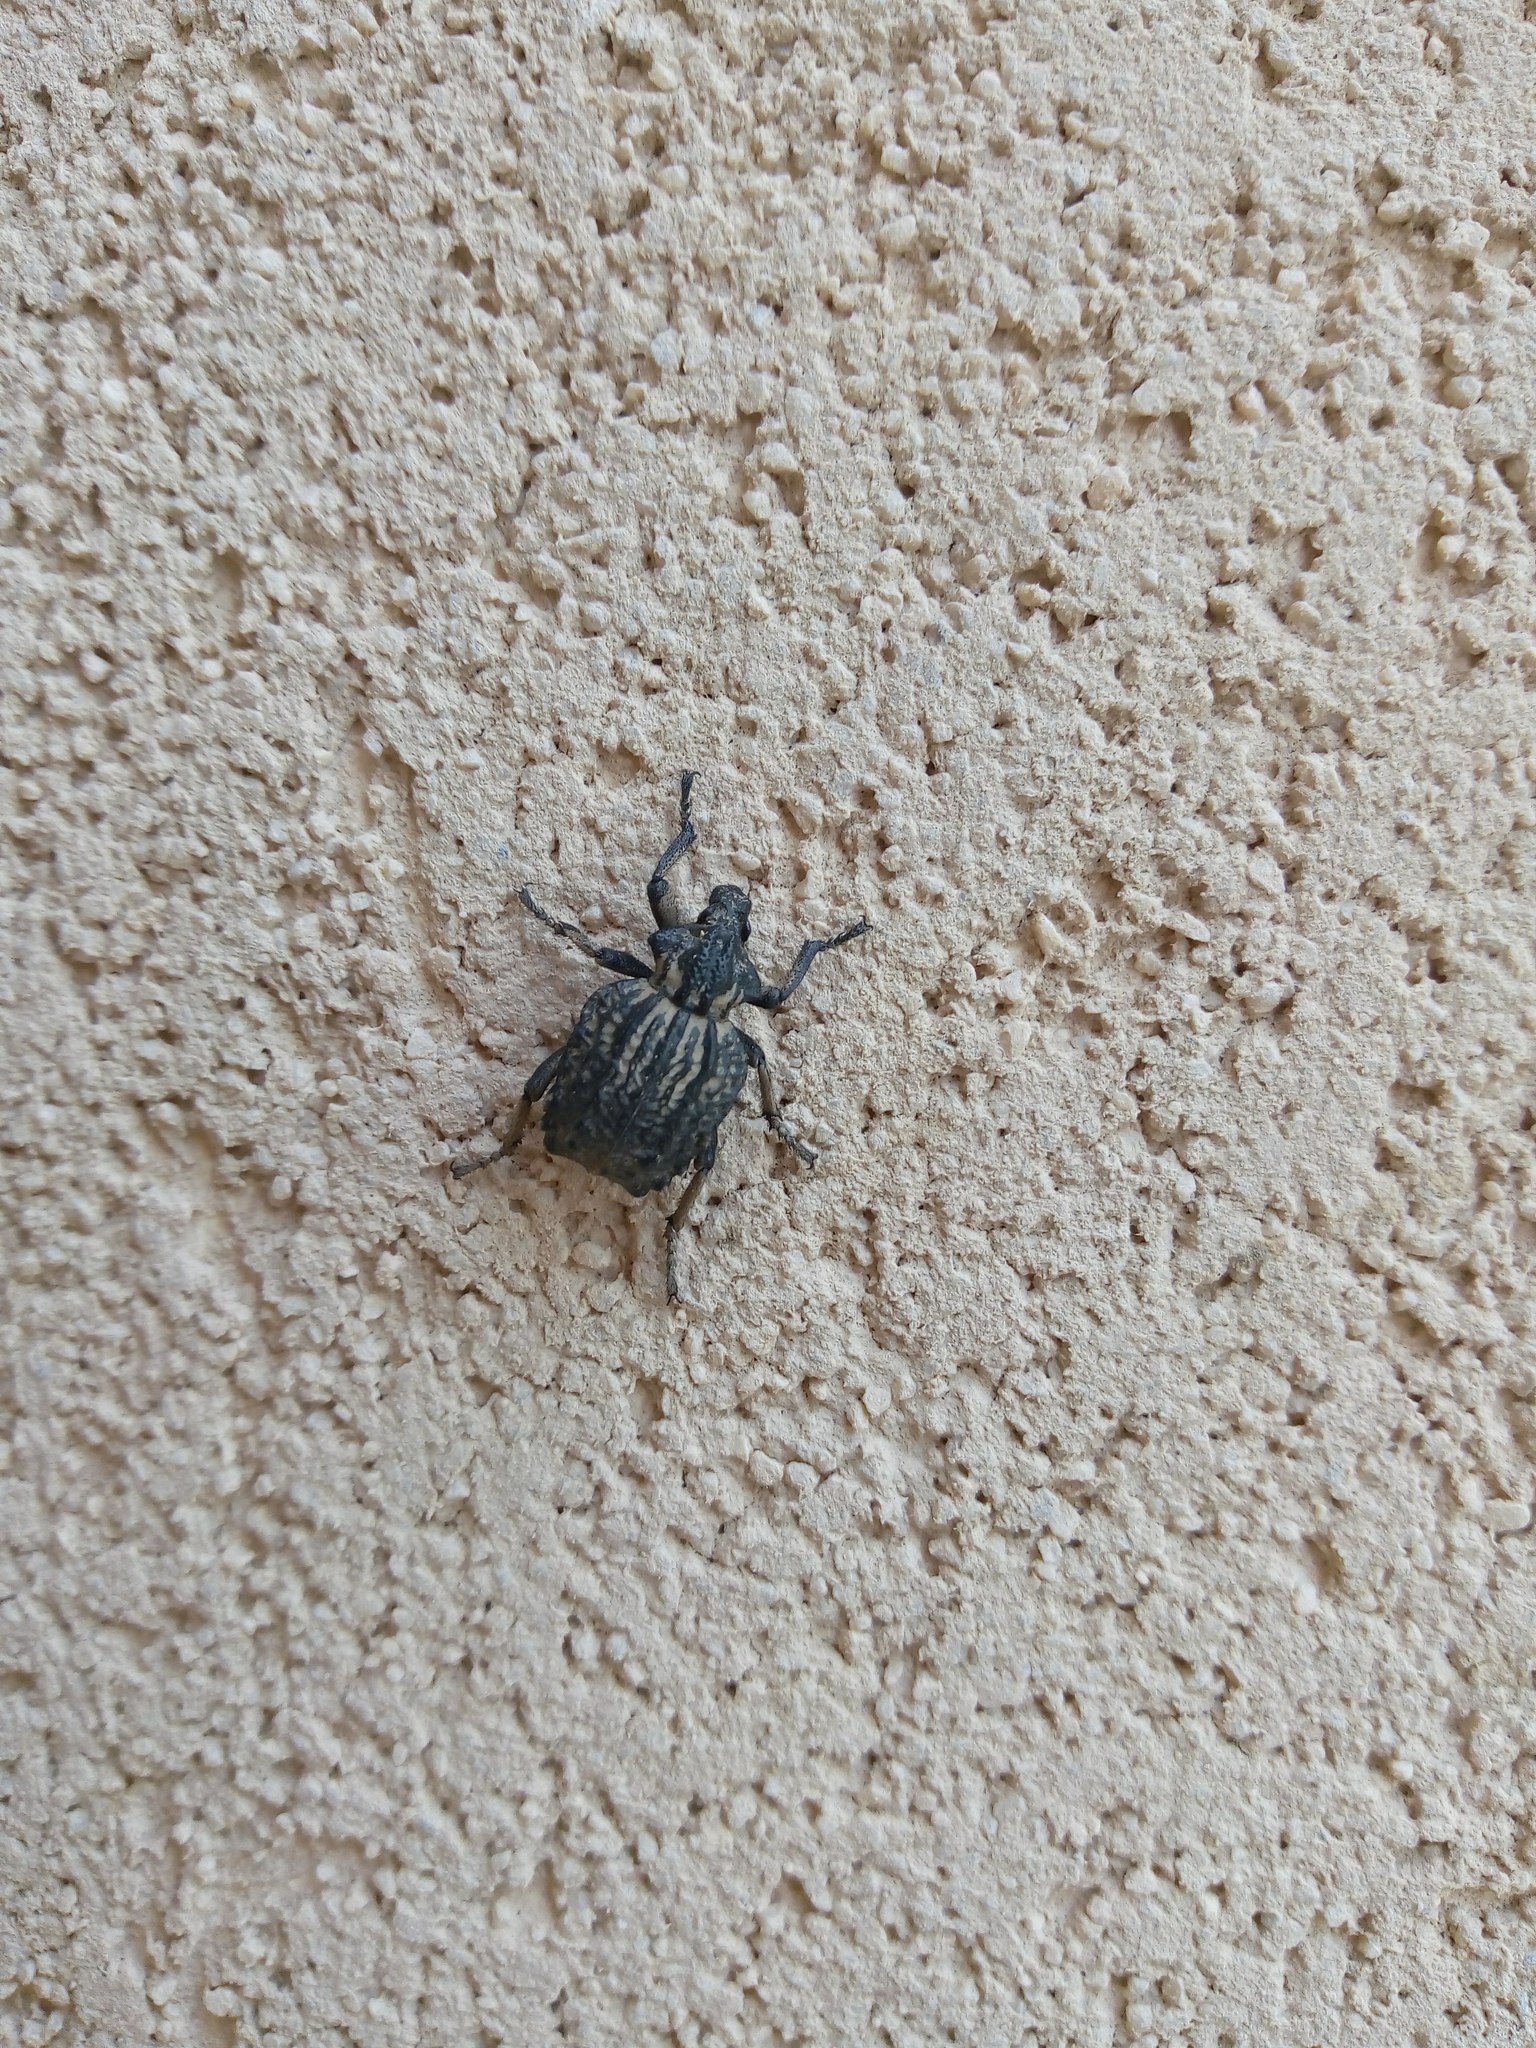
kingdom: Animalia
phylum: Arthropoda
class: Insecta
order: Coleoptera
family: Brachyceridae
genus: Brachycerus
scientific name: Brachycerus undatus
